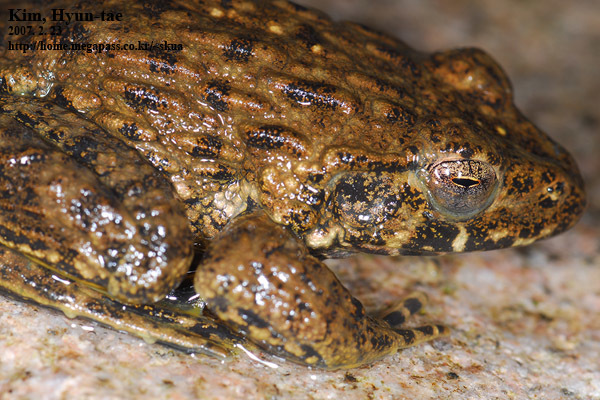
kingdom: Animalia
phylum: Chordata
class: Amphibia
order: Anura
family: Ranidae
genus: Glandirana
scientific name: Glandirana emeljanovi
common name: Northeast china rough-skinned frog
